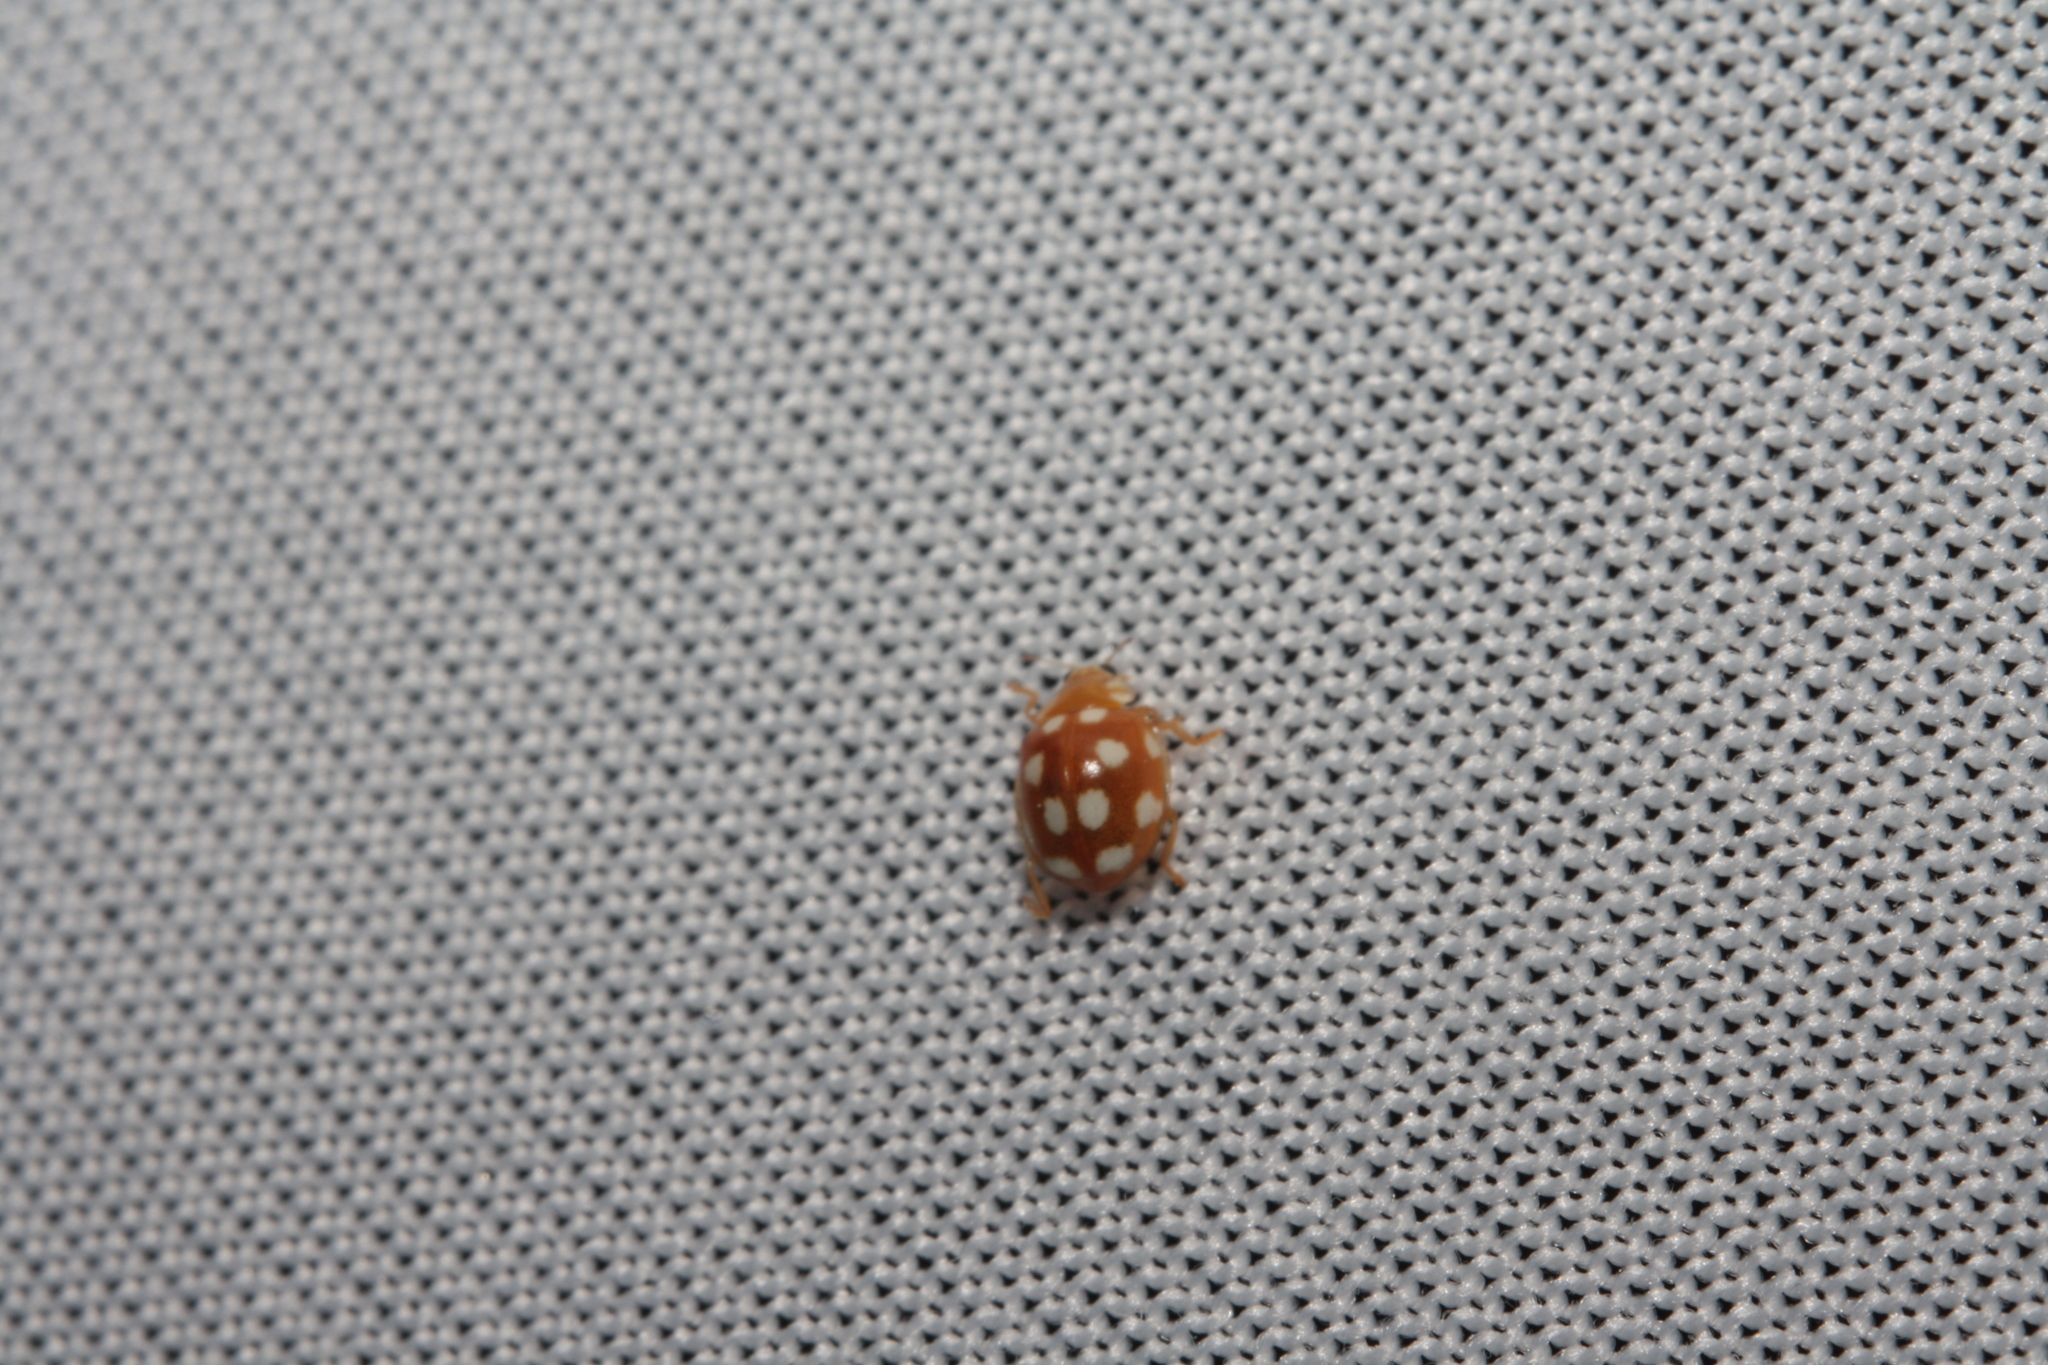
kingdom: Animalia
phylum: Arthropoda
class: Insecta
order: Coleoptera
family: Coccinellidae
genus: Vibidia
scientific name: Vibidia duodecimguttata
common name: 12-spot ladybird
